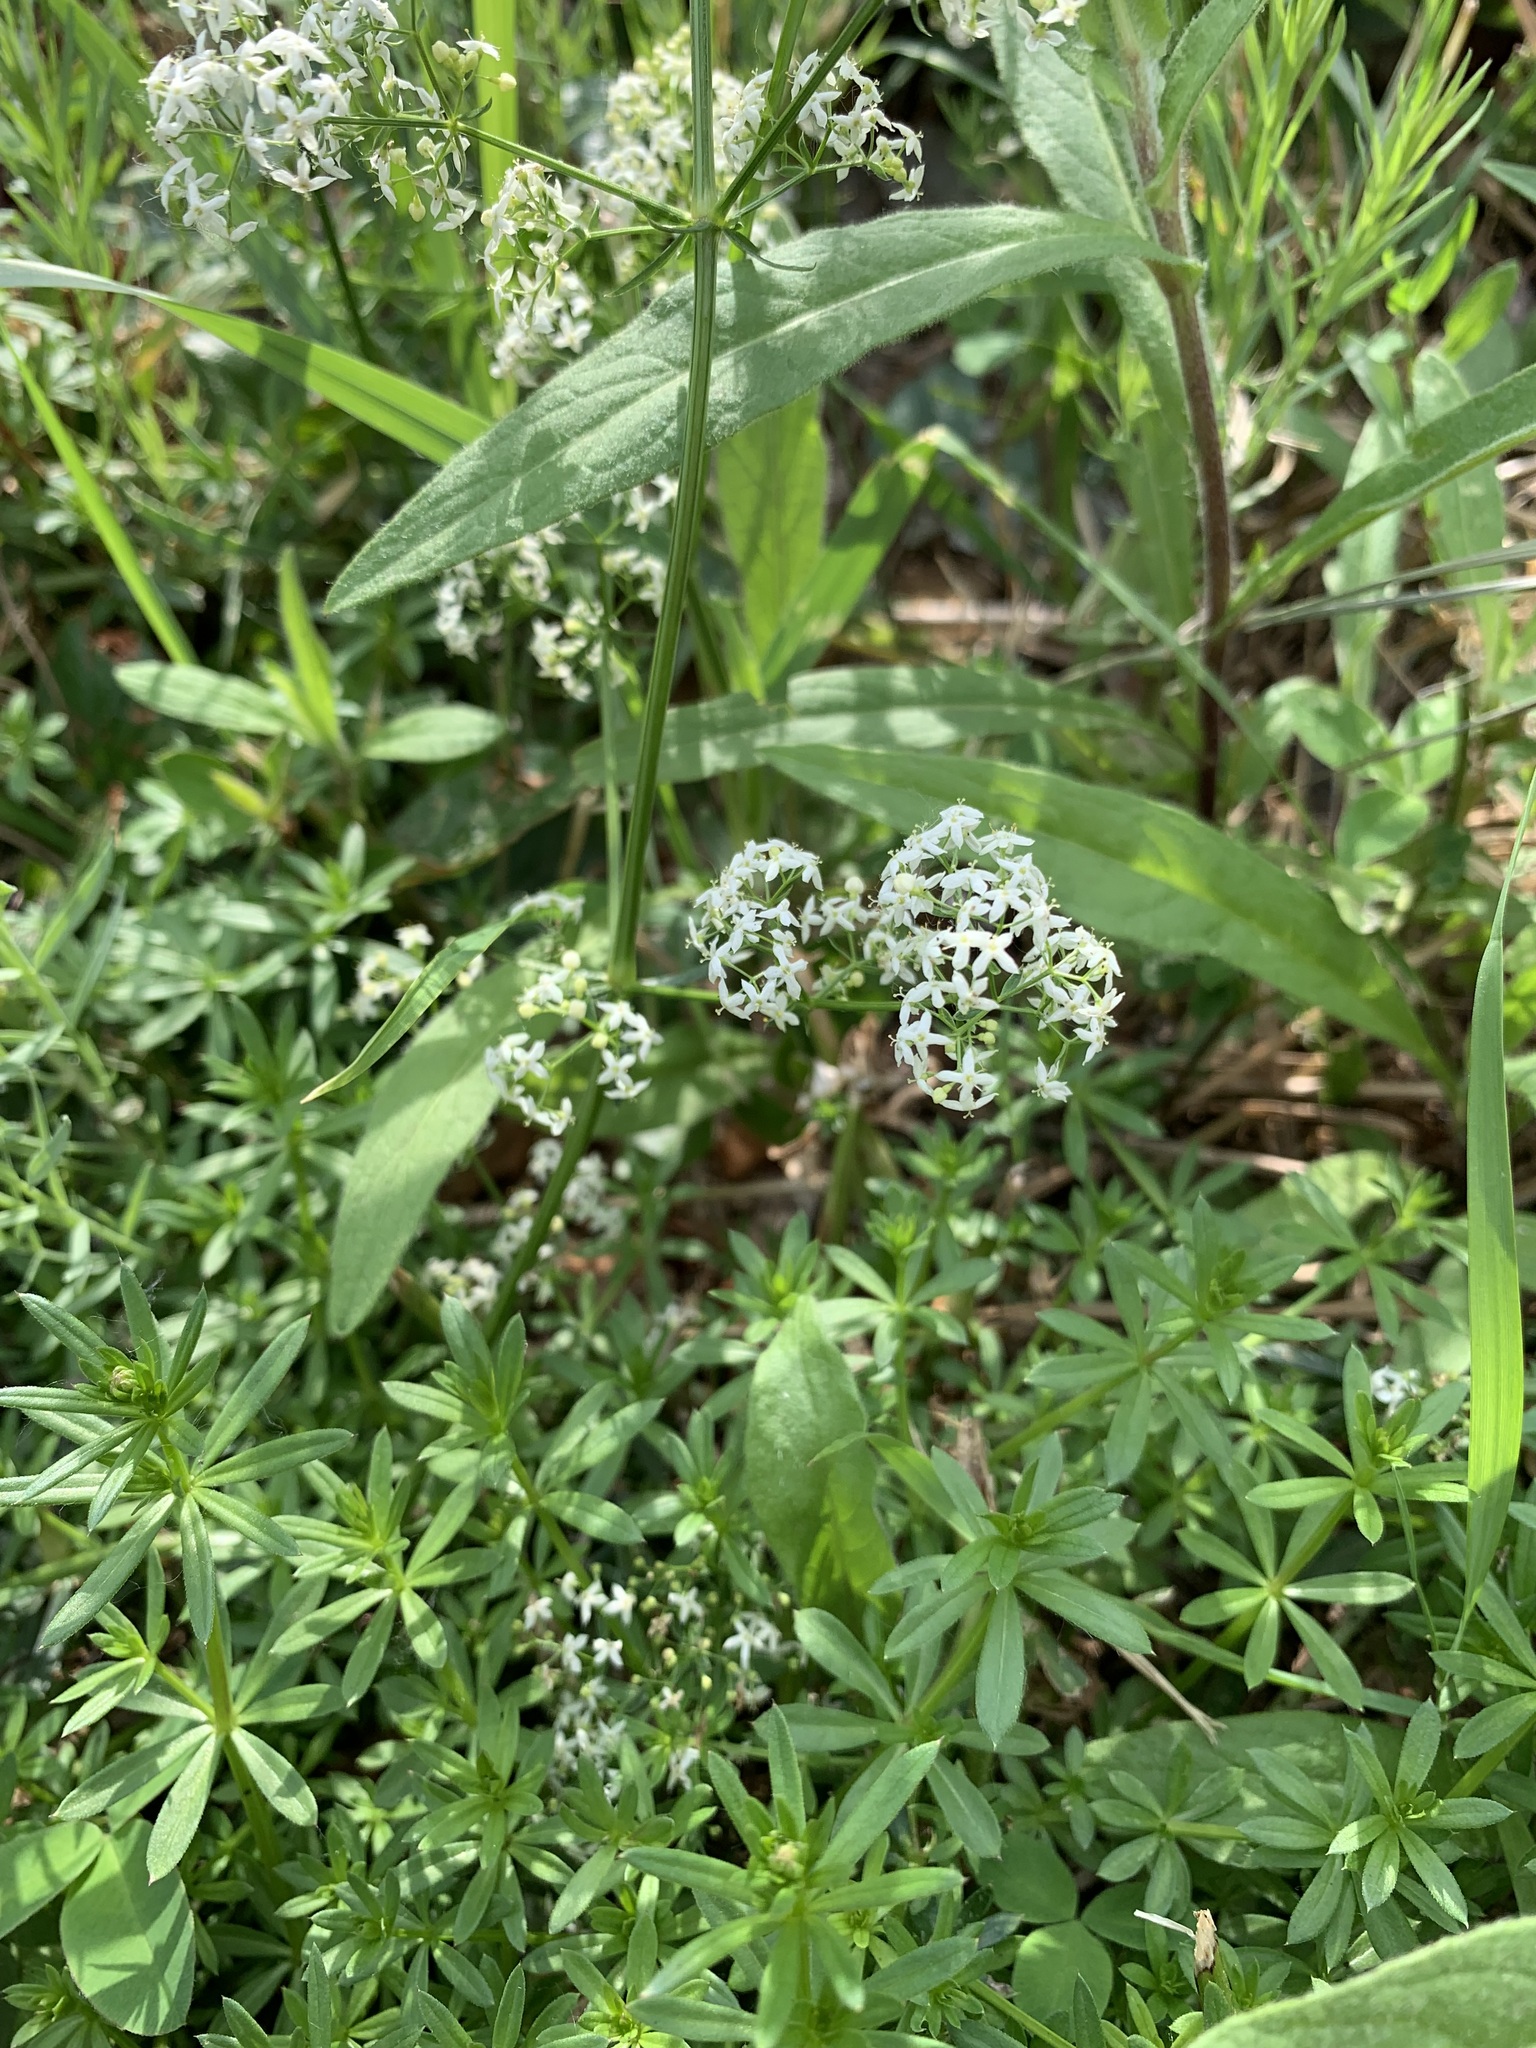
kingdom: Plantae
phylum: Tracheophyta
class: Magnoliopsida
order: Gentianales
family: Rubiaceae
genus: Galium
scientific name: Galium mollugo
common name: Hedge bedstraw
